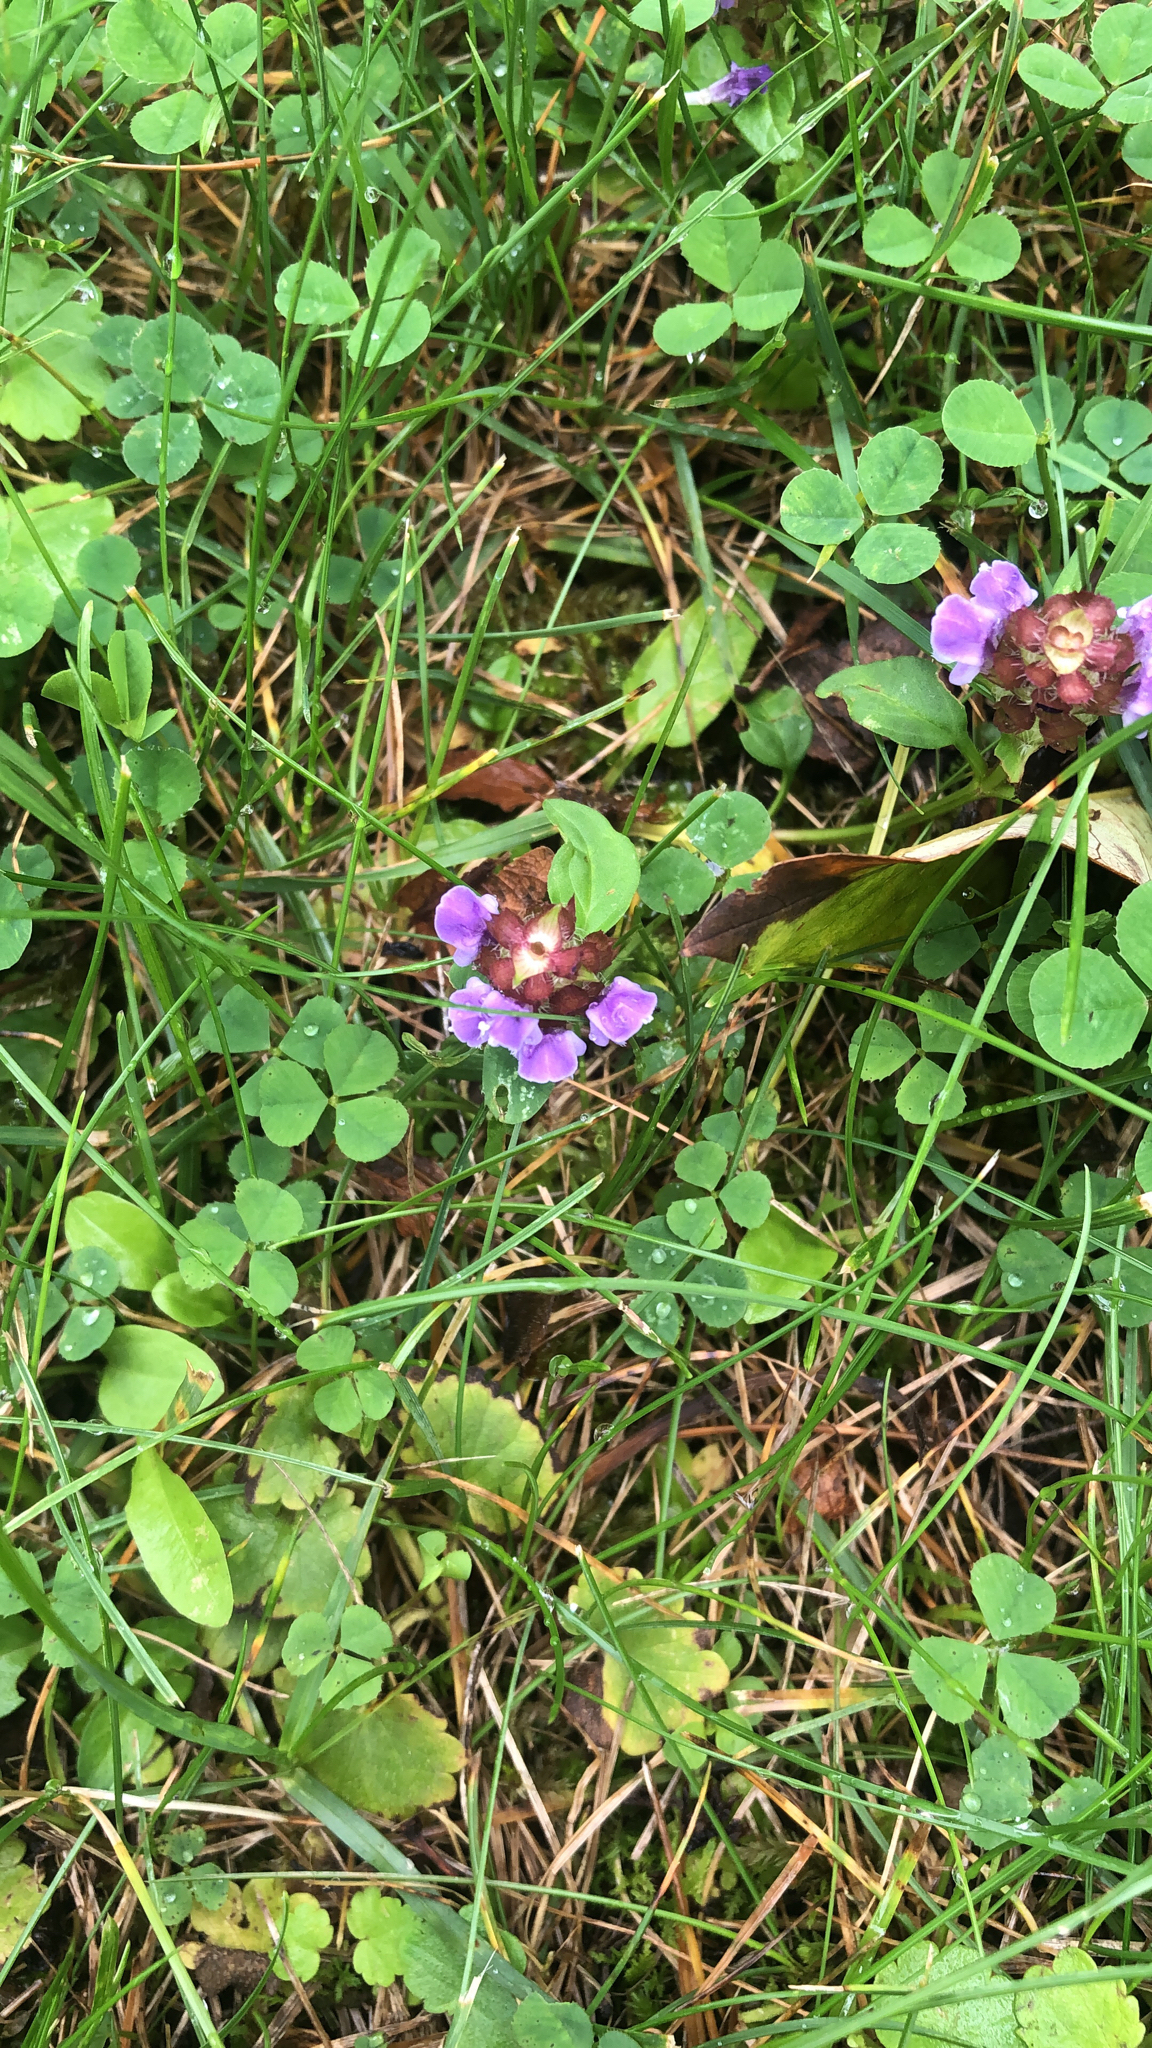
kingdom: Plantae
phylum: Tracheophyta
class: Magnoliopsida
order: Lamiales
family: Lamiaceae
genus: Prunella
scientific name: Prunella vulgaris
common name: Heal-all
